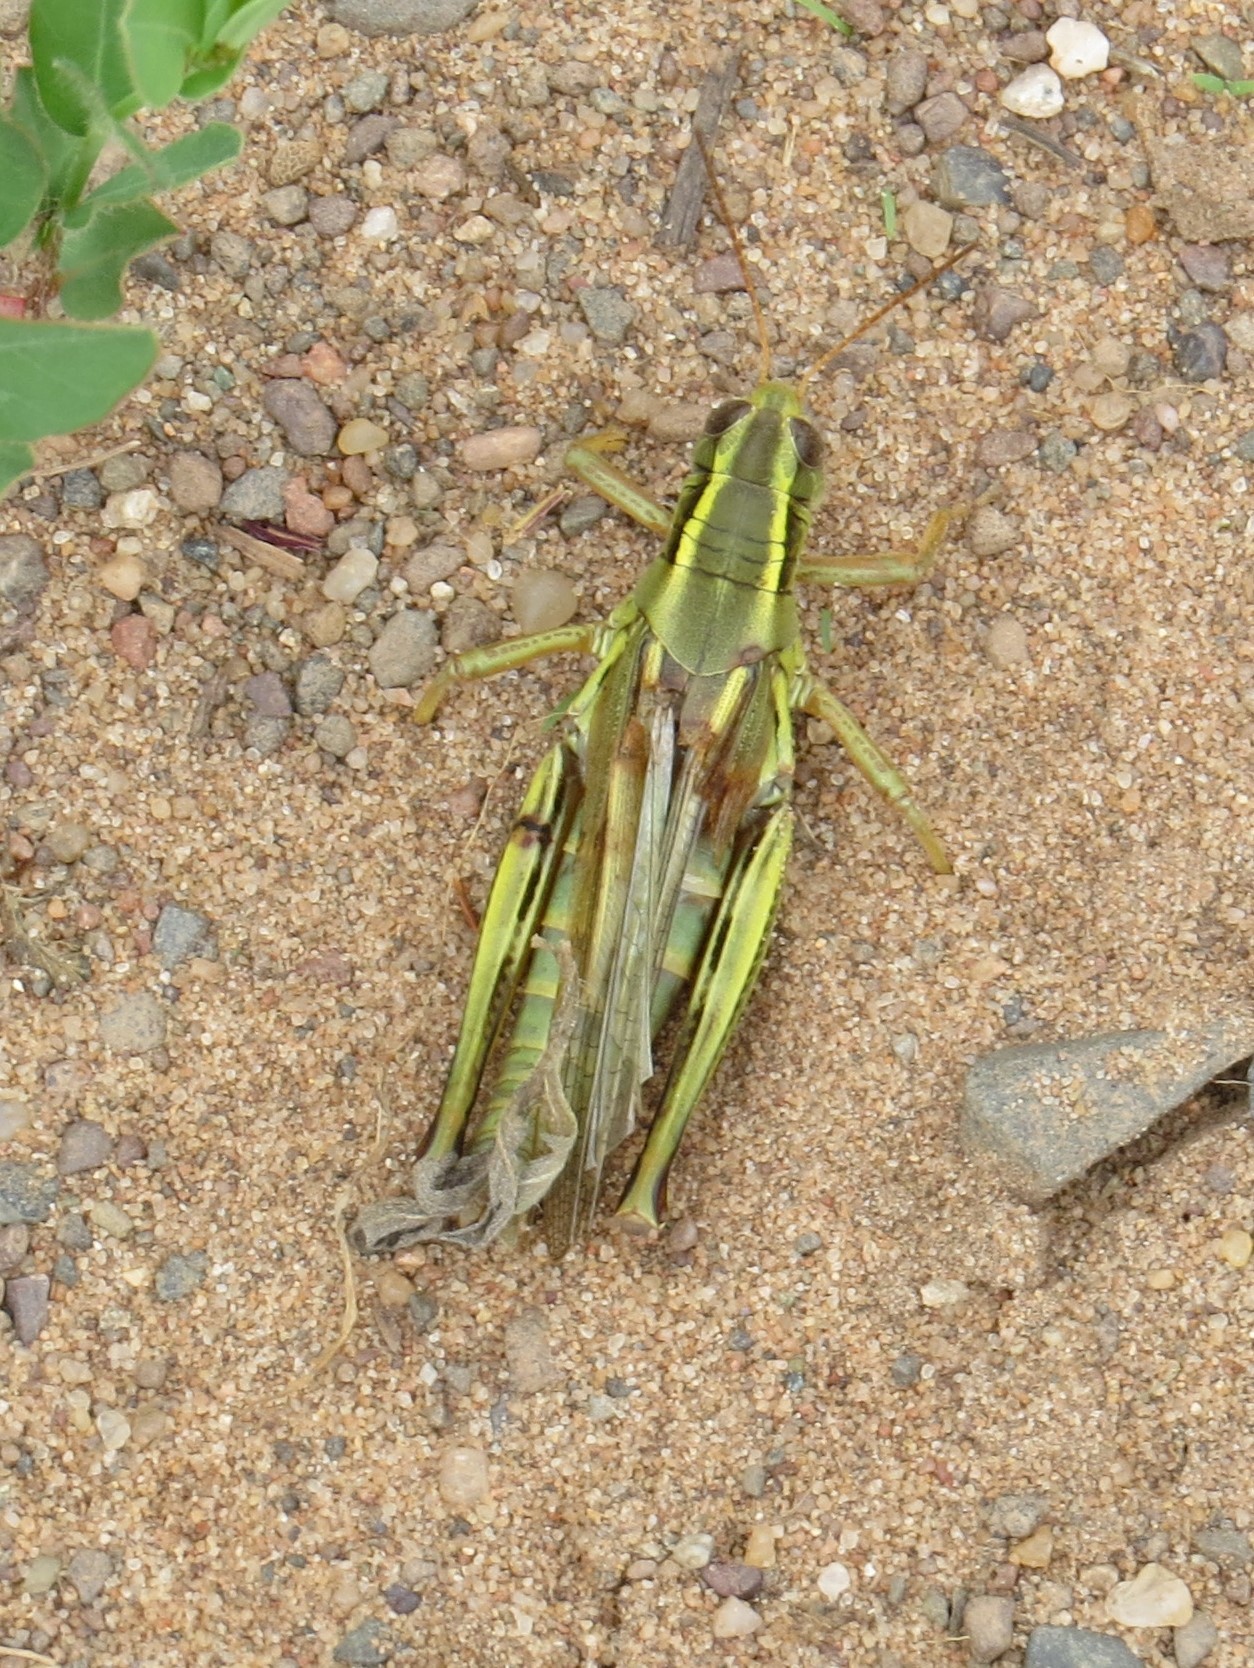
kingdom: Animalia
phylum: Arthropoda
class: Insecta
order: Orthoptera
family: Acrididae
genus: Melanoplus
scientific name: Melanoplus bivittatus
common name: Two-striped grasshopper
